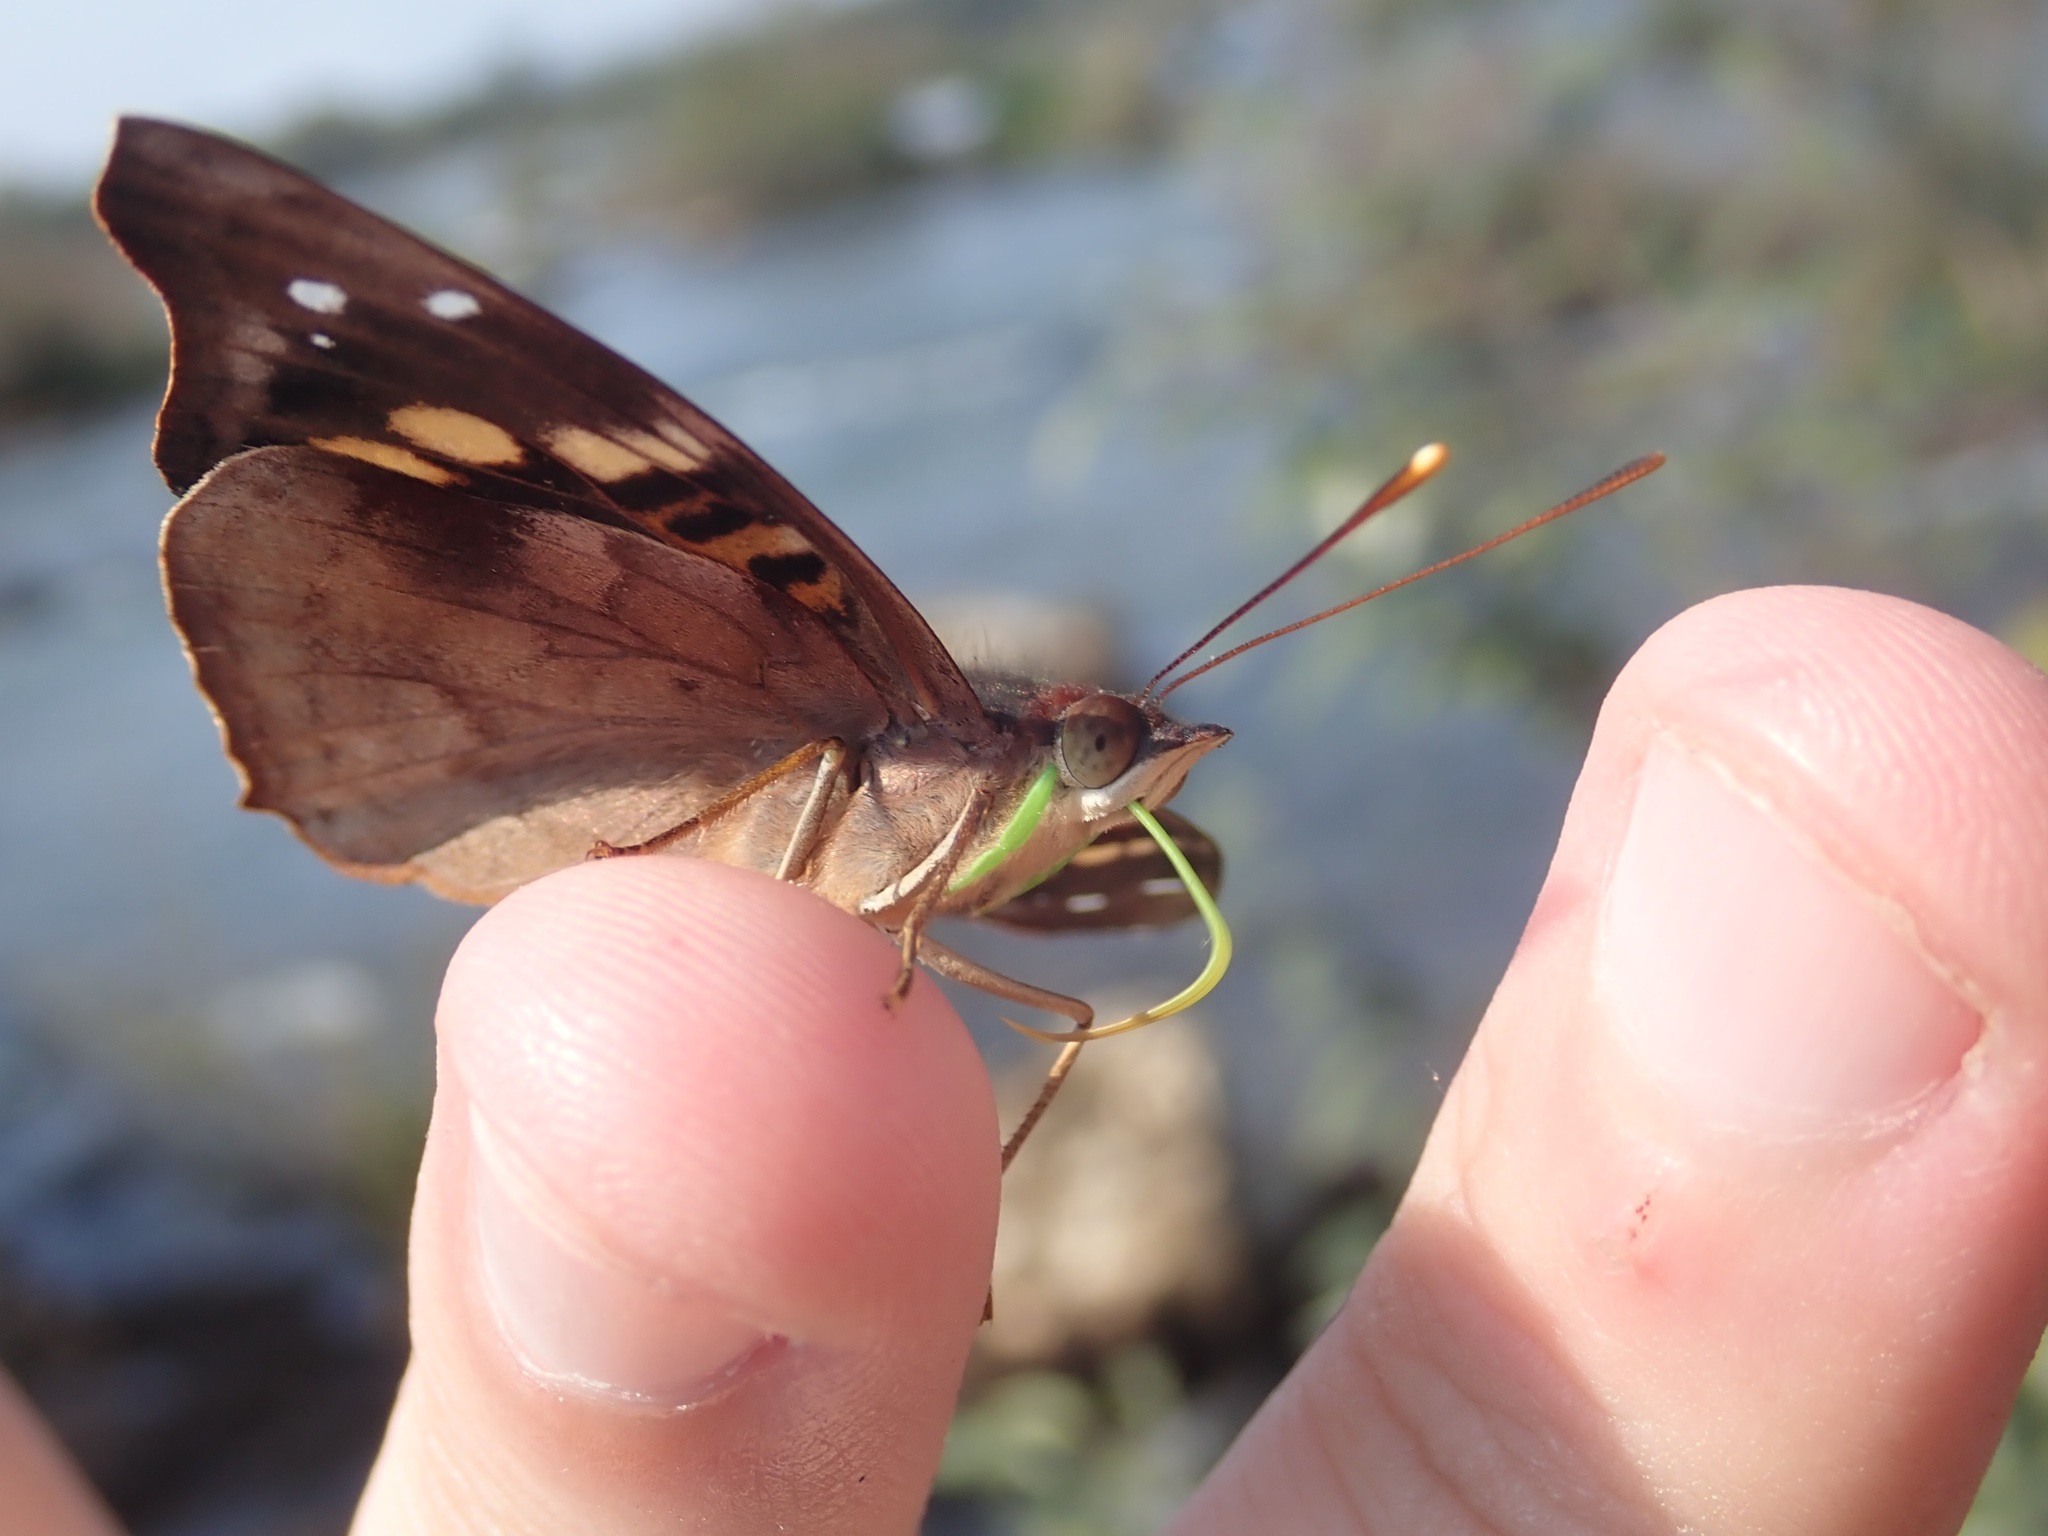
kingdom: Animalia
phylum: Arthropoda
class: Insecta
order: Lepidoptera
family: Nymphalidae
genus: Doxocopa
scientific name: Doxocopa agathina
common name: Agathina emperor
